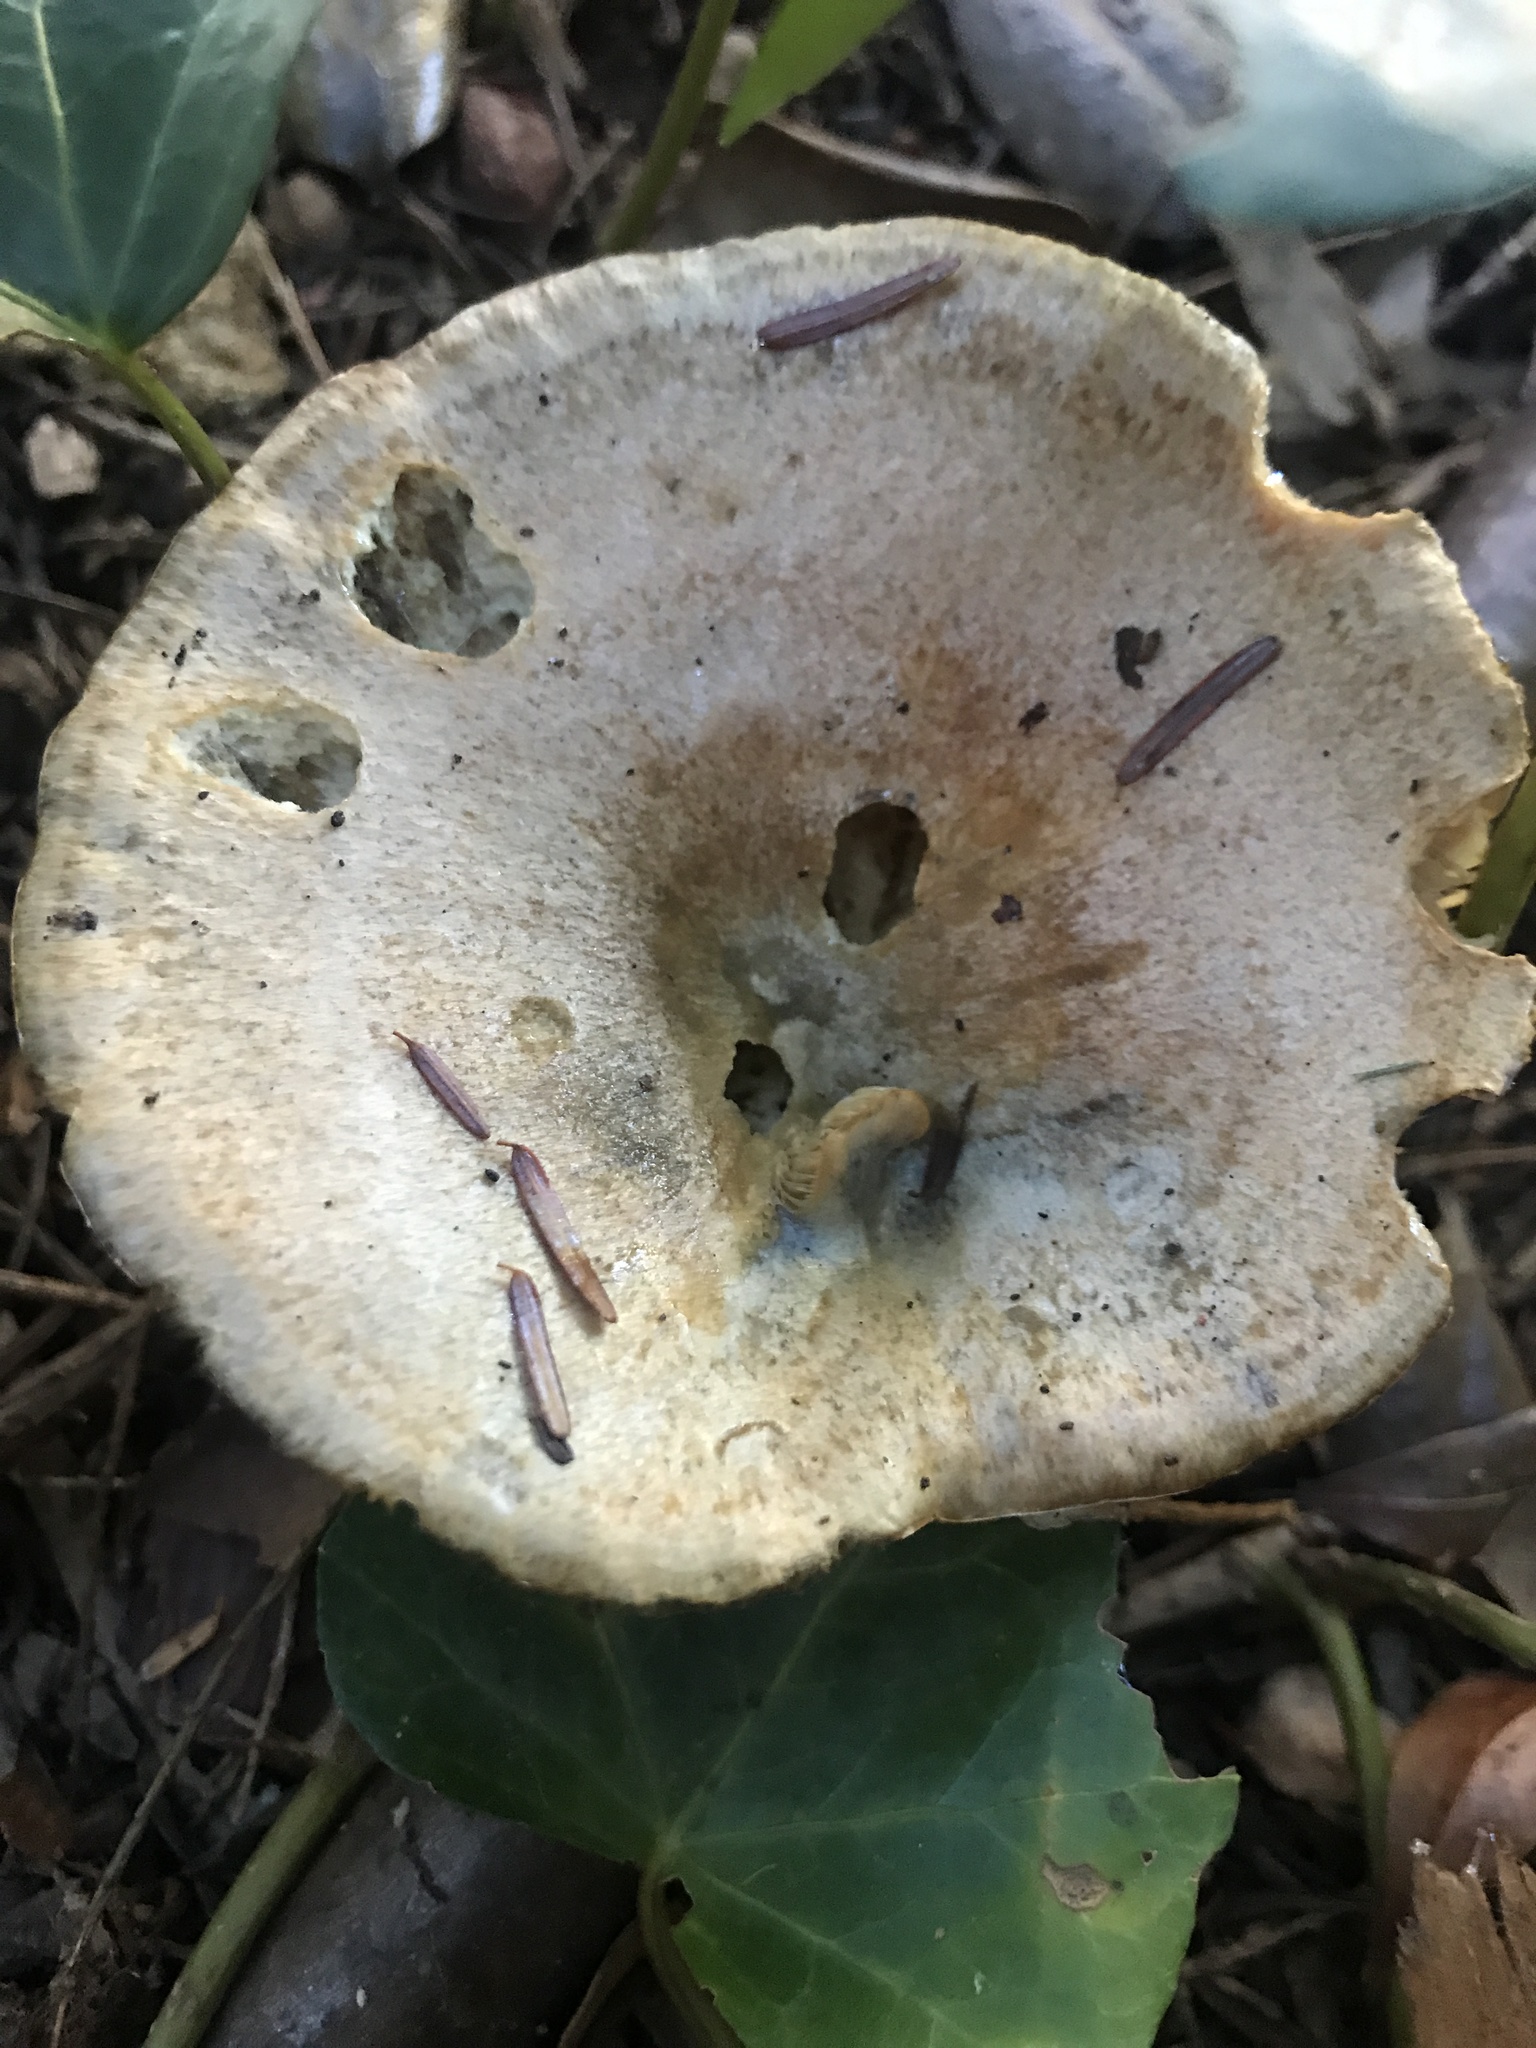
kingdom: Fungi
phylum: Basidiomycota
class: Agaricomycetes
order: Russulales
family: Russulaceae
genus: Lactarius
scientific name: Lactarius chelidonium
